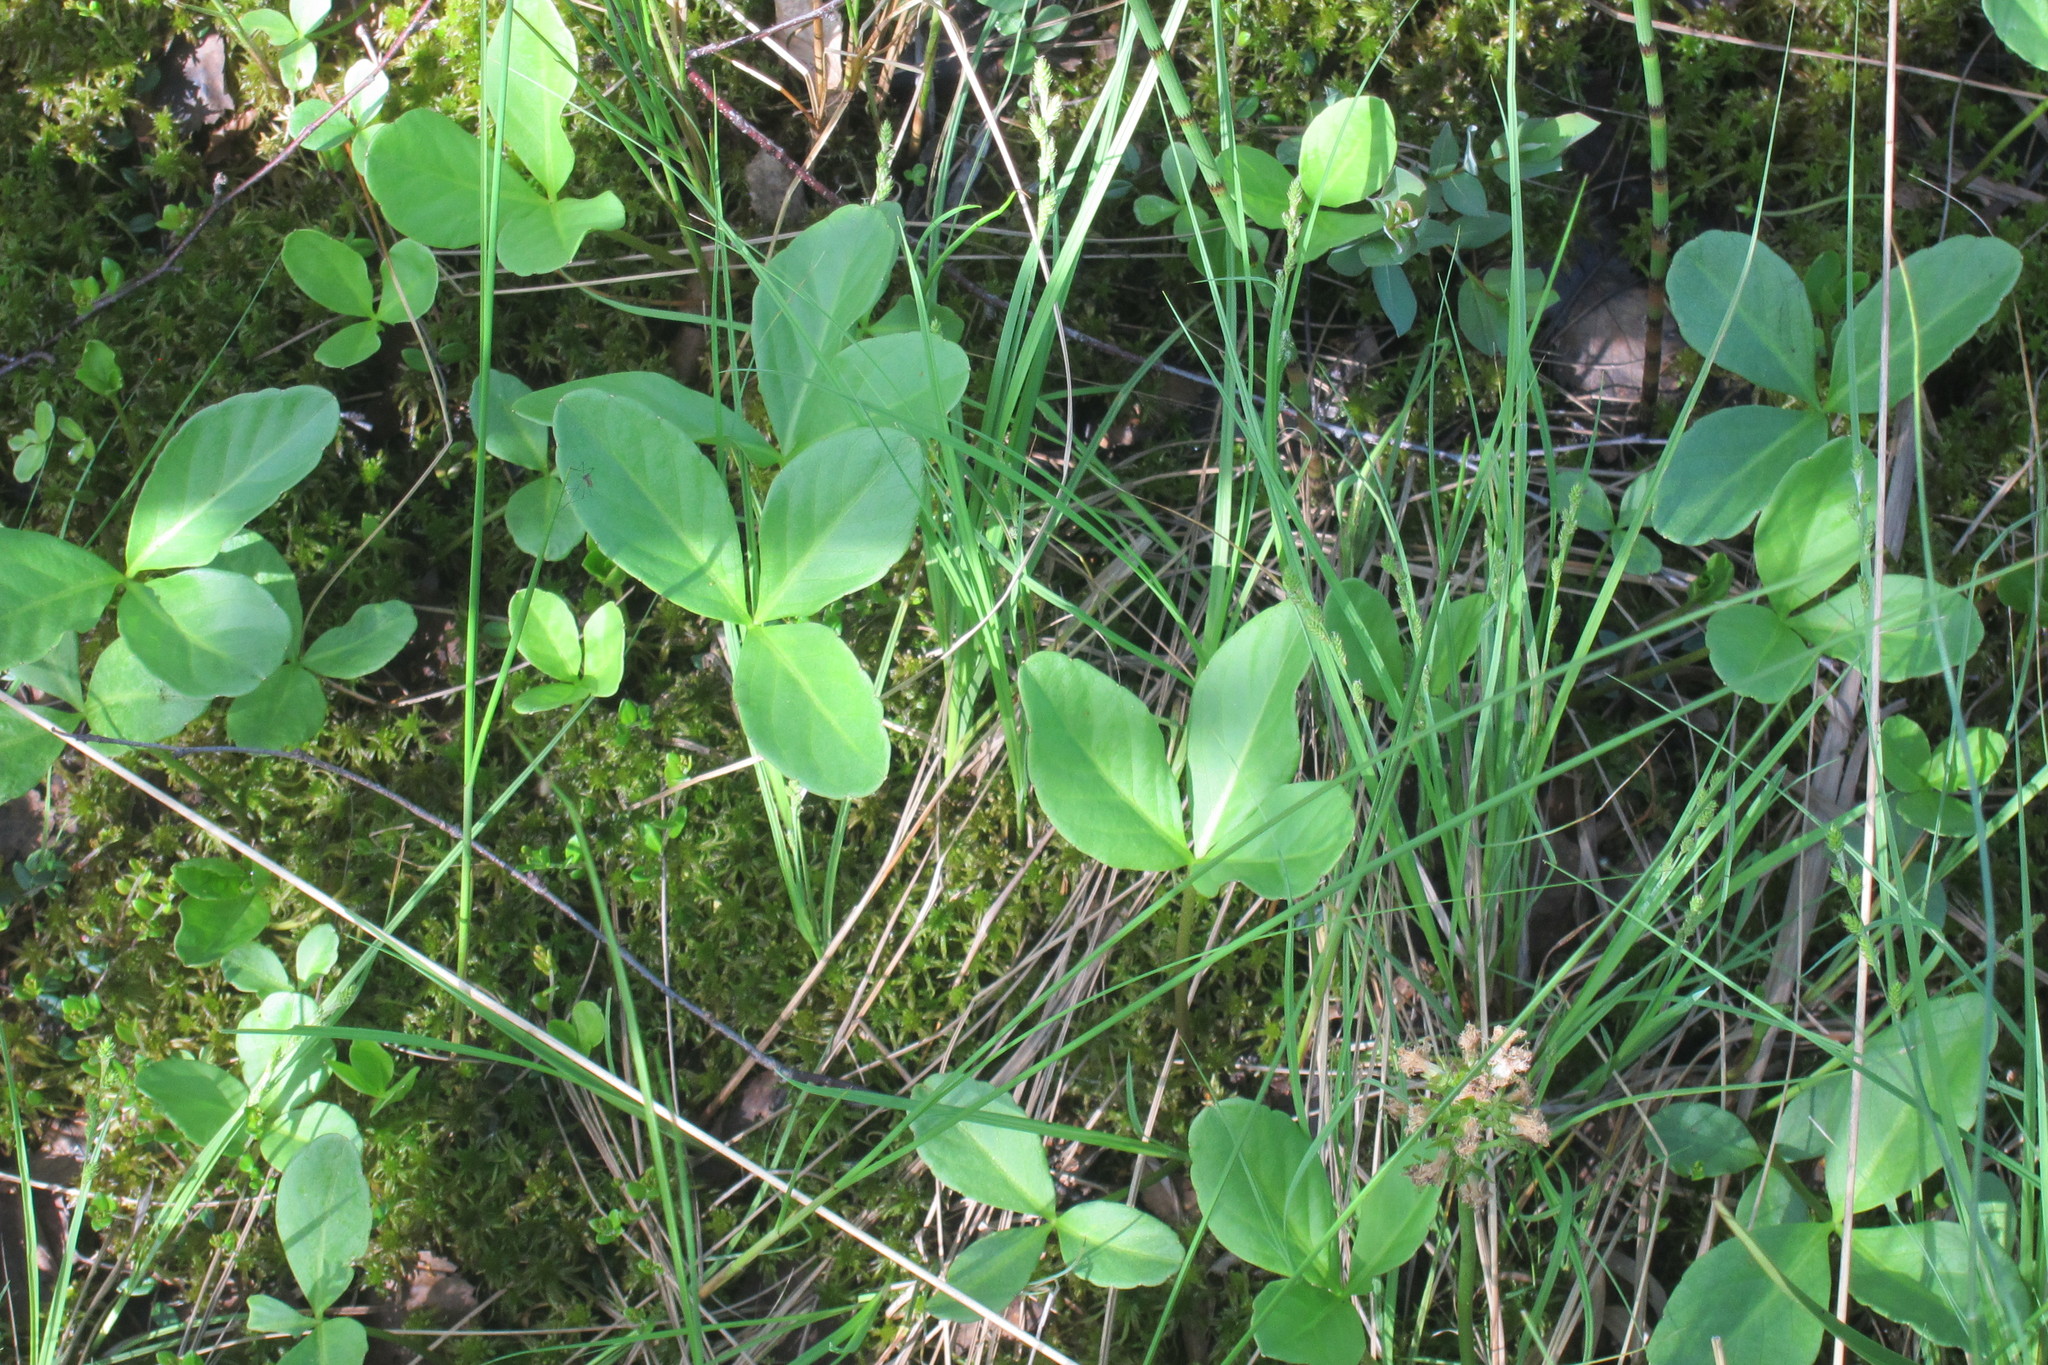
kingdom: Plantae
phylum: Tracheophyta
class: Magnoliopsida
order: Asterales
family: Menyanthaceae
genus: Menyanthes
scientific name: Menyanthes trifoliata
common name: Bogbean
